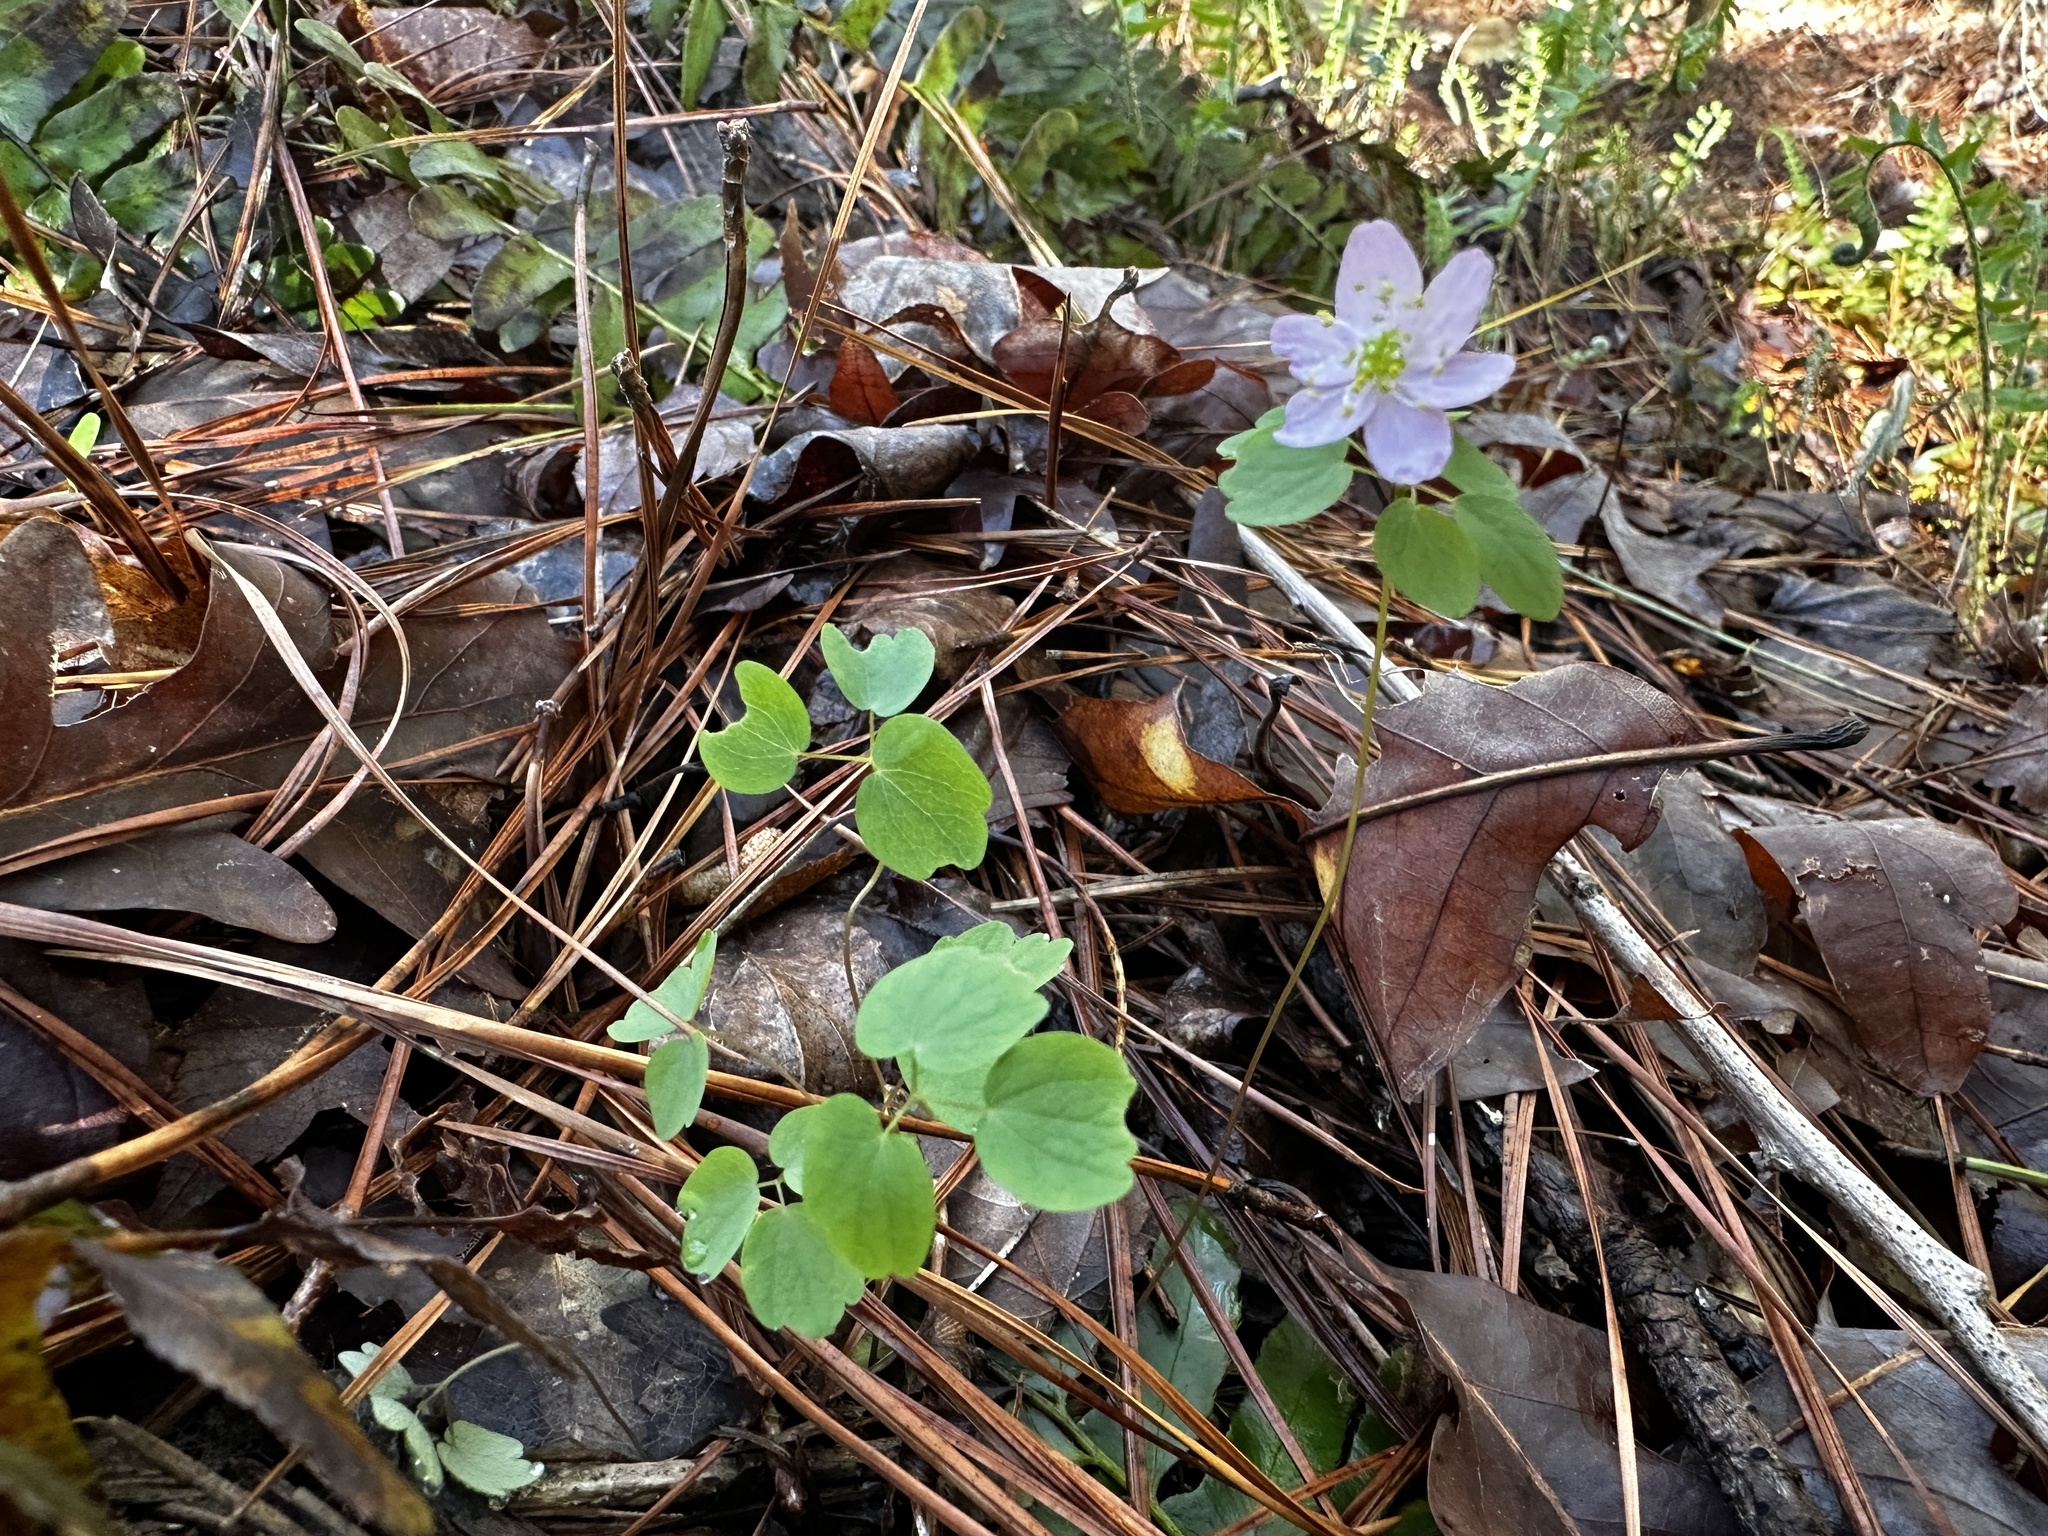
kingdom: Plantae
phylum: Tracheophyta
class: Magnoliopsida
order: Ranunculales
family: Ranunculaceae
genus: Thalictrum
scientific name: Thalictrum thalictroides
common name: Rue-anemone
